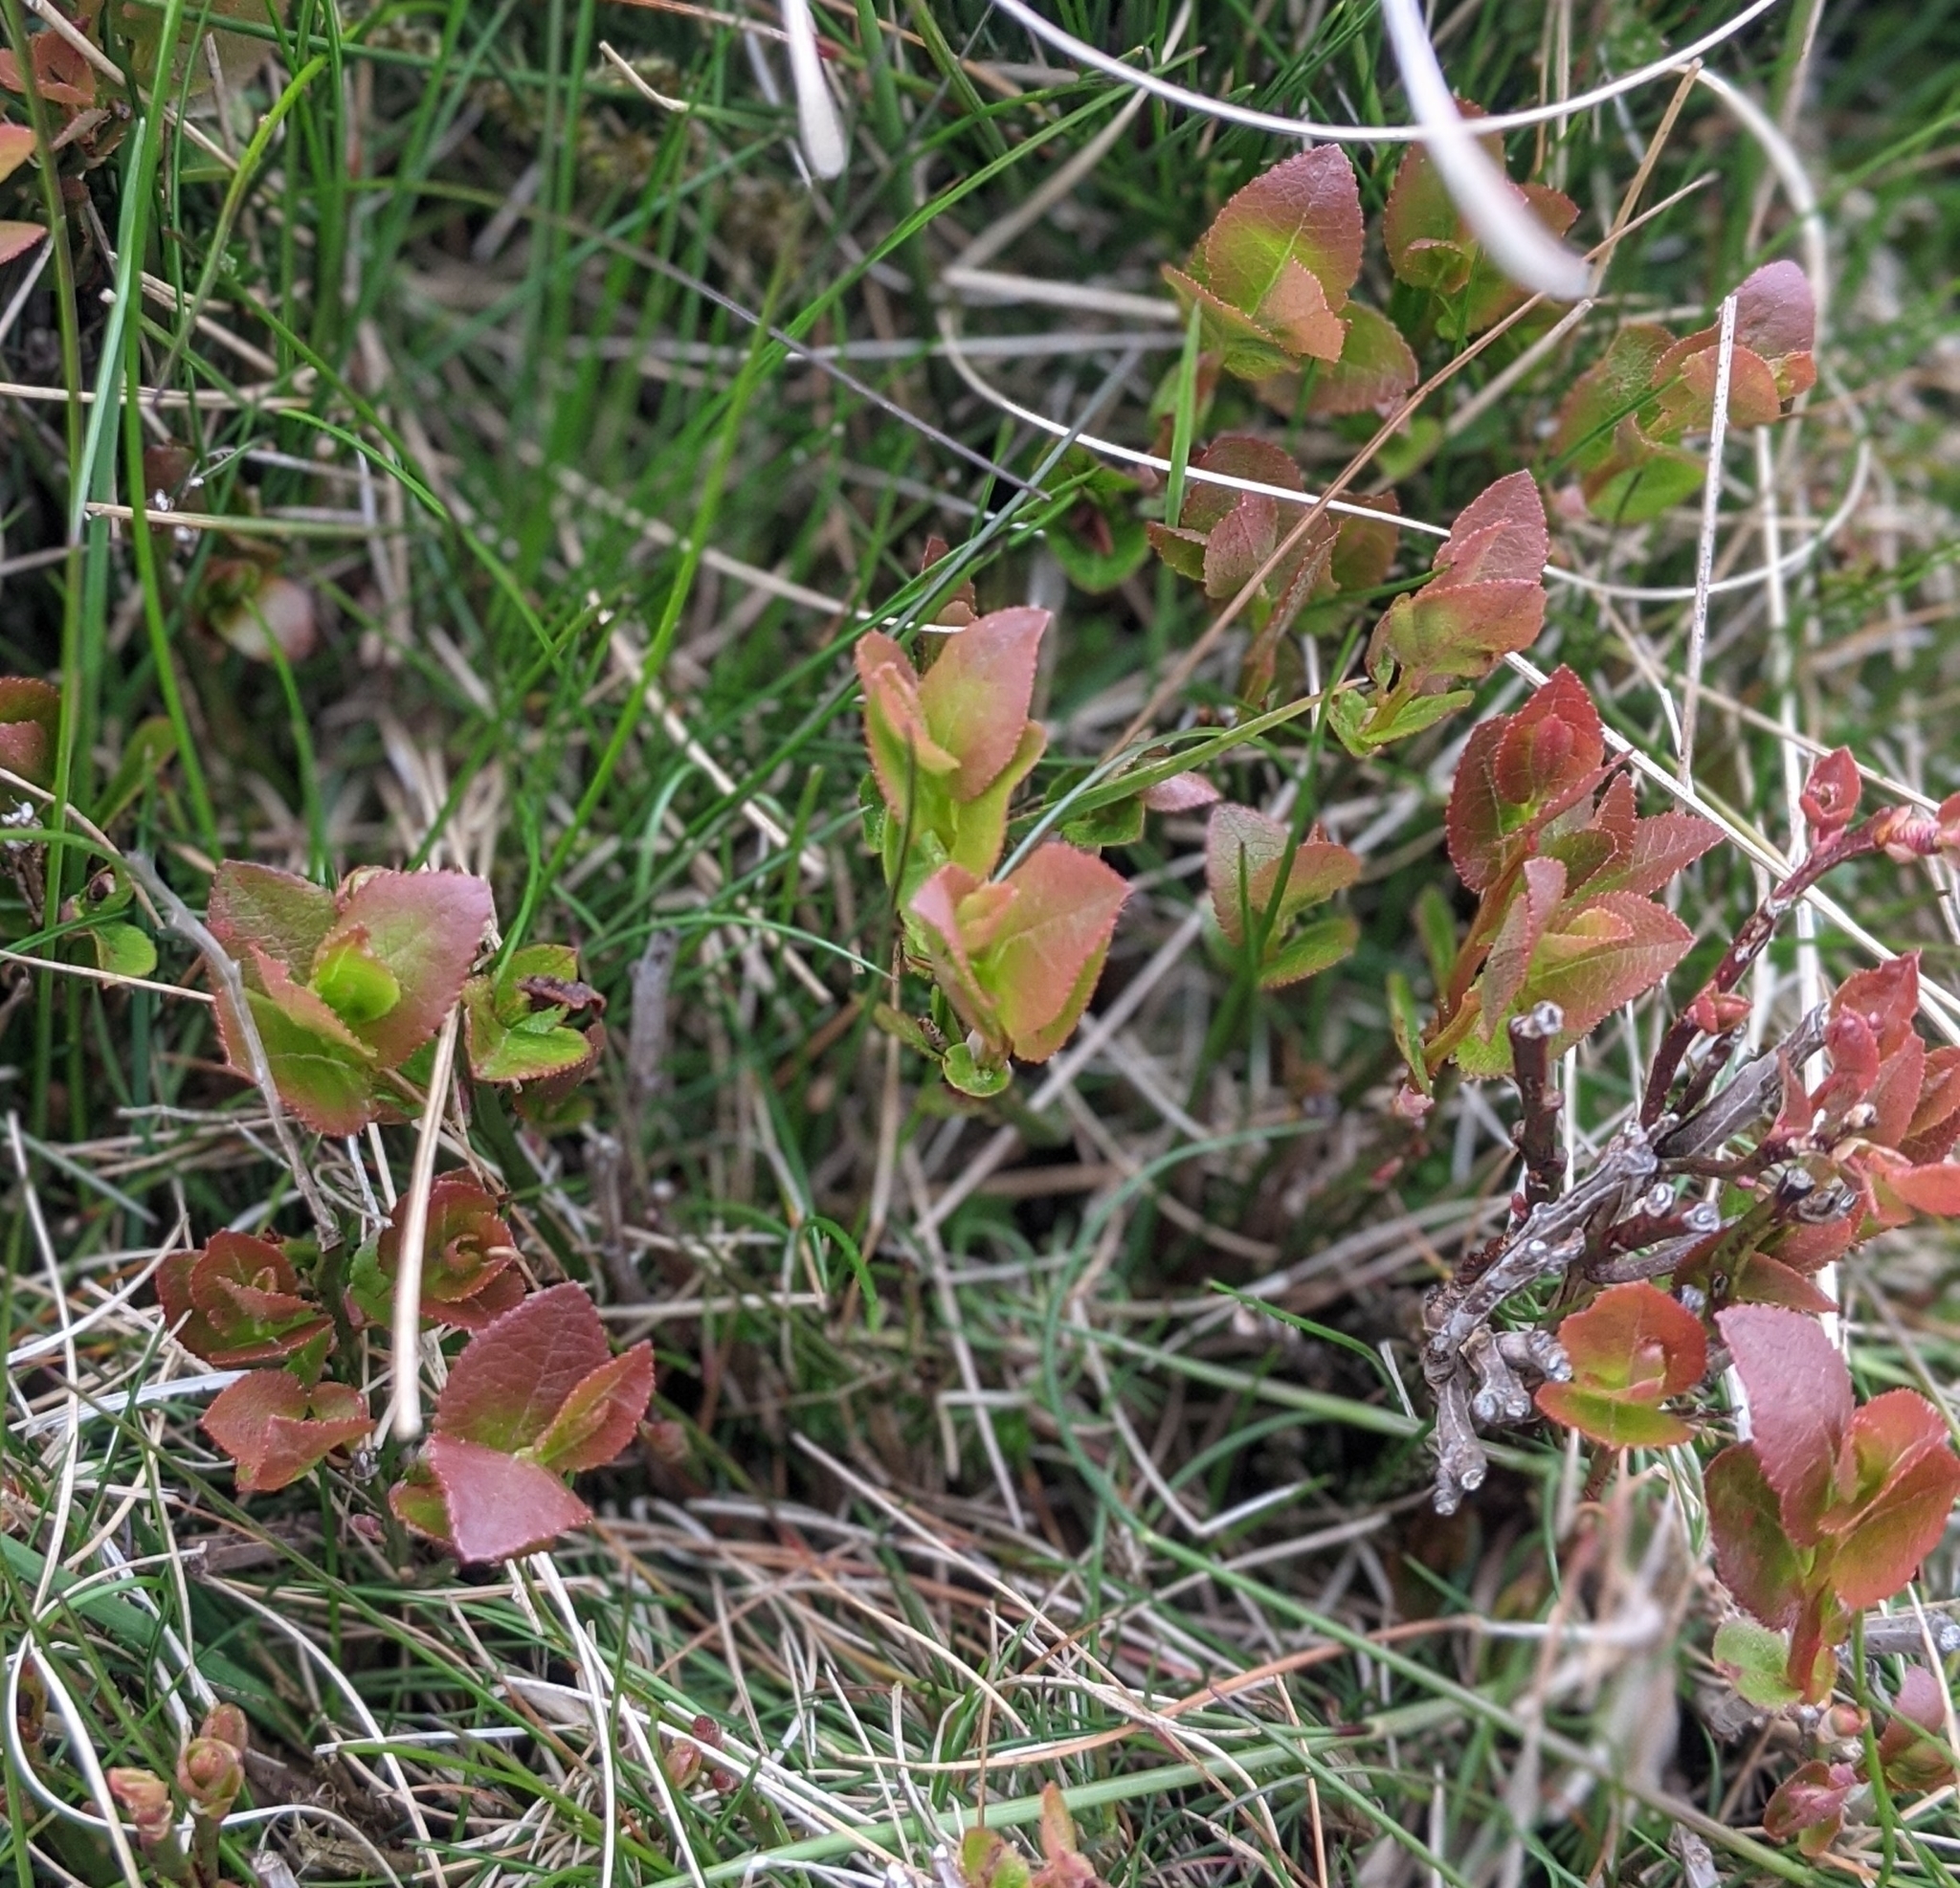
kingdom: Plantae
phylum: Tracheophyta
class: Magnoliopsida
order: Ericales
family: Ericaceae
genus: Vaccinium
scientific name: Vaccinium myrtillus
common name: Bilberry
